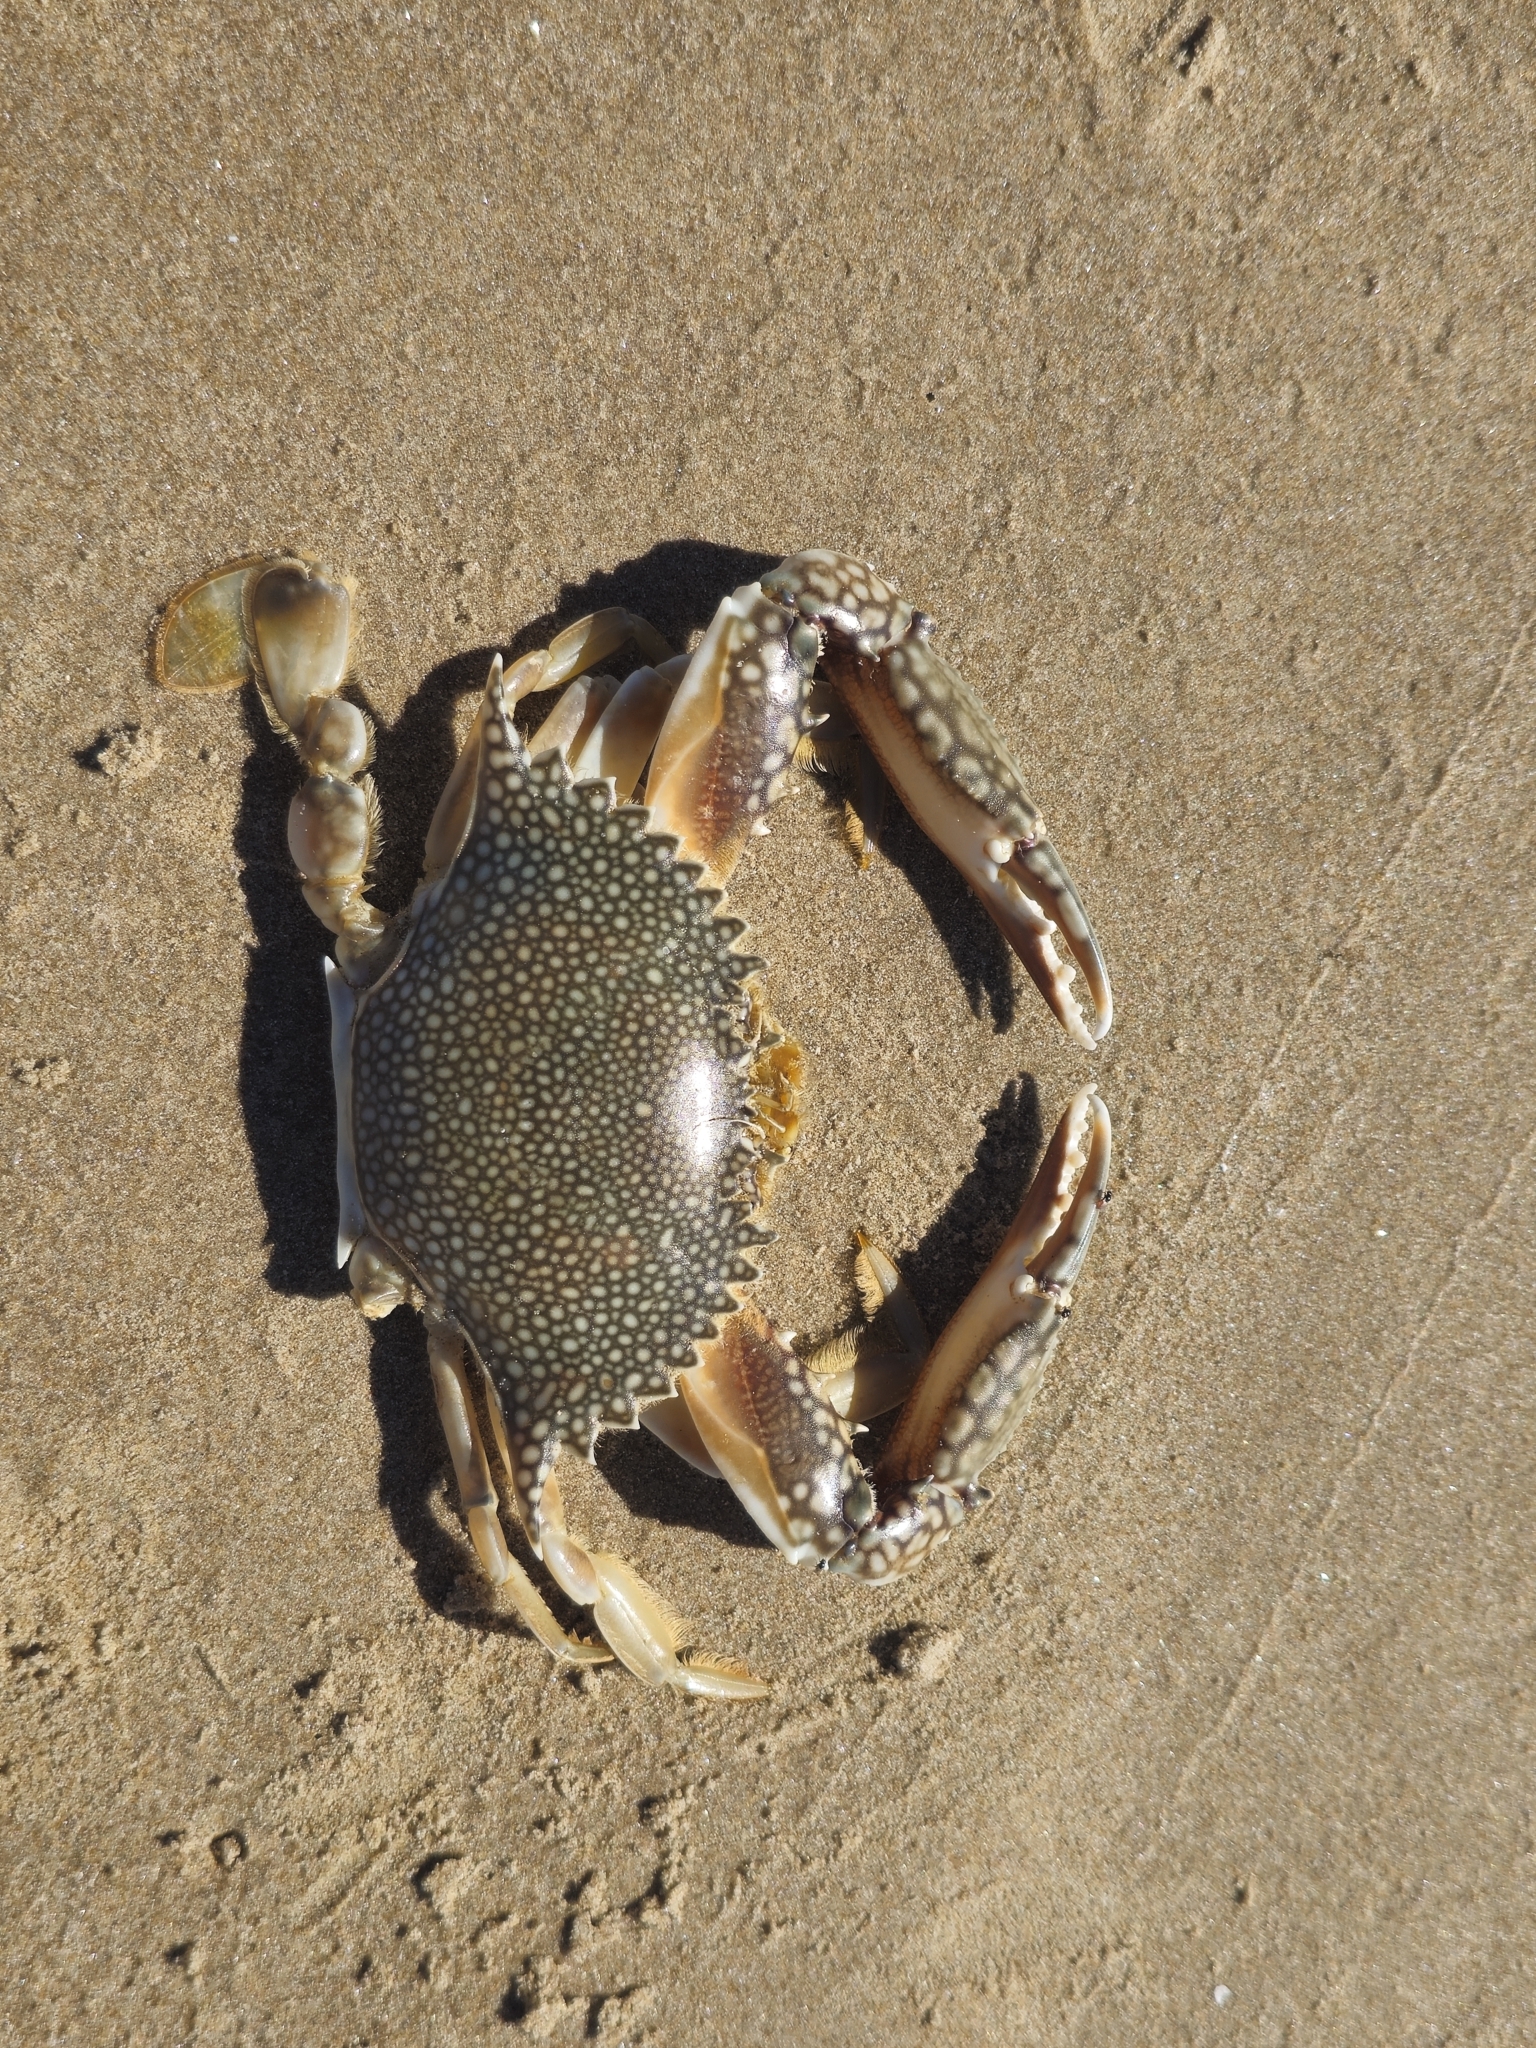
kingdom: Animalia
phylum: Arthropoda
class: Malacostraca
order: Decapoda
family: Portunidae
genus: Arenaeus
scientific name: Arenaeus cribrarius
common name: Speckled crab
